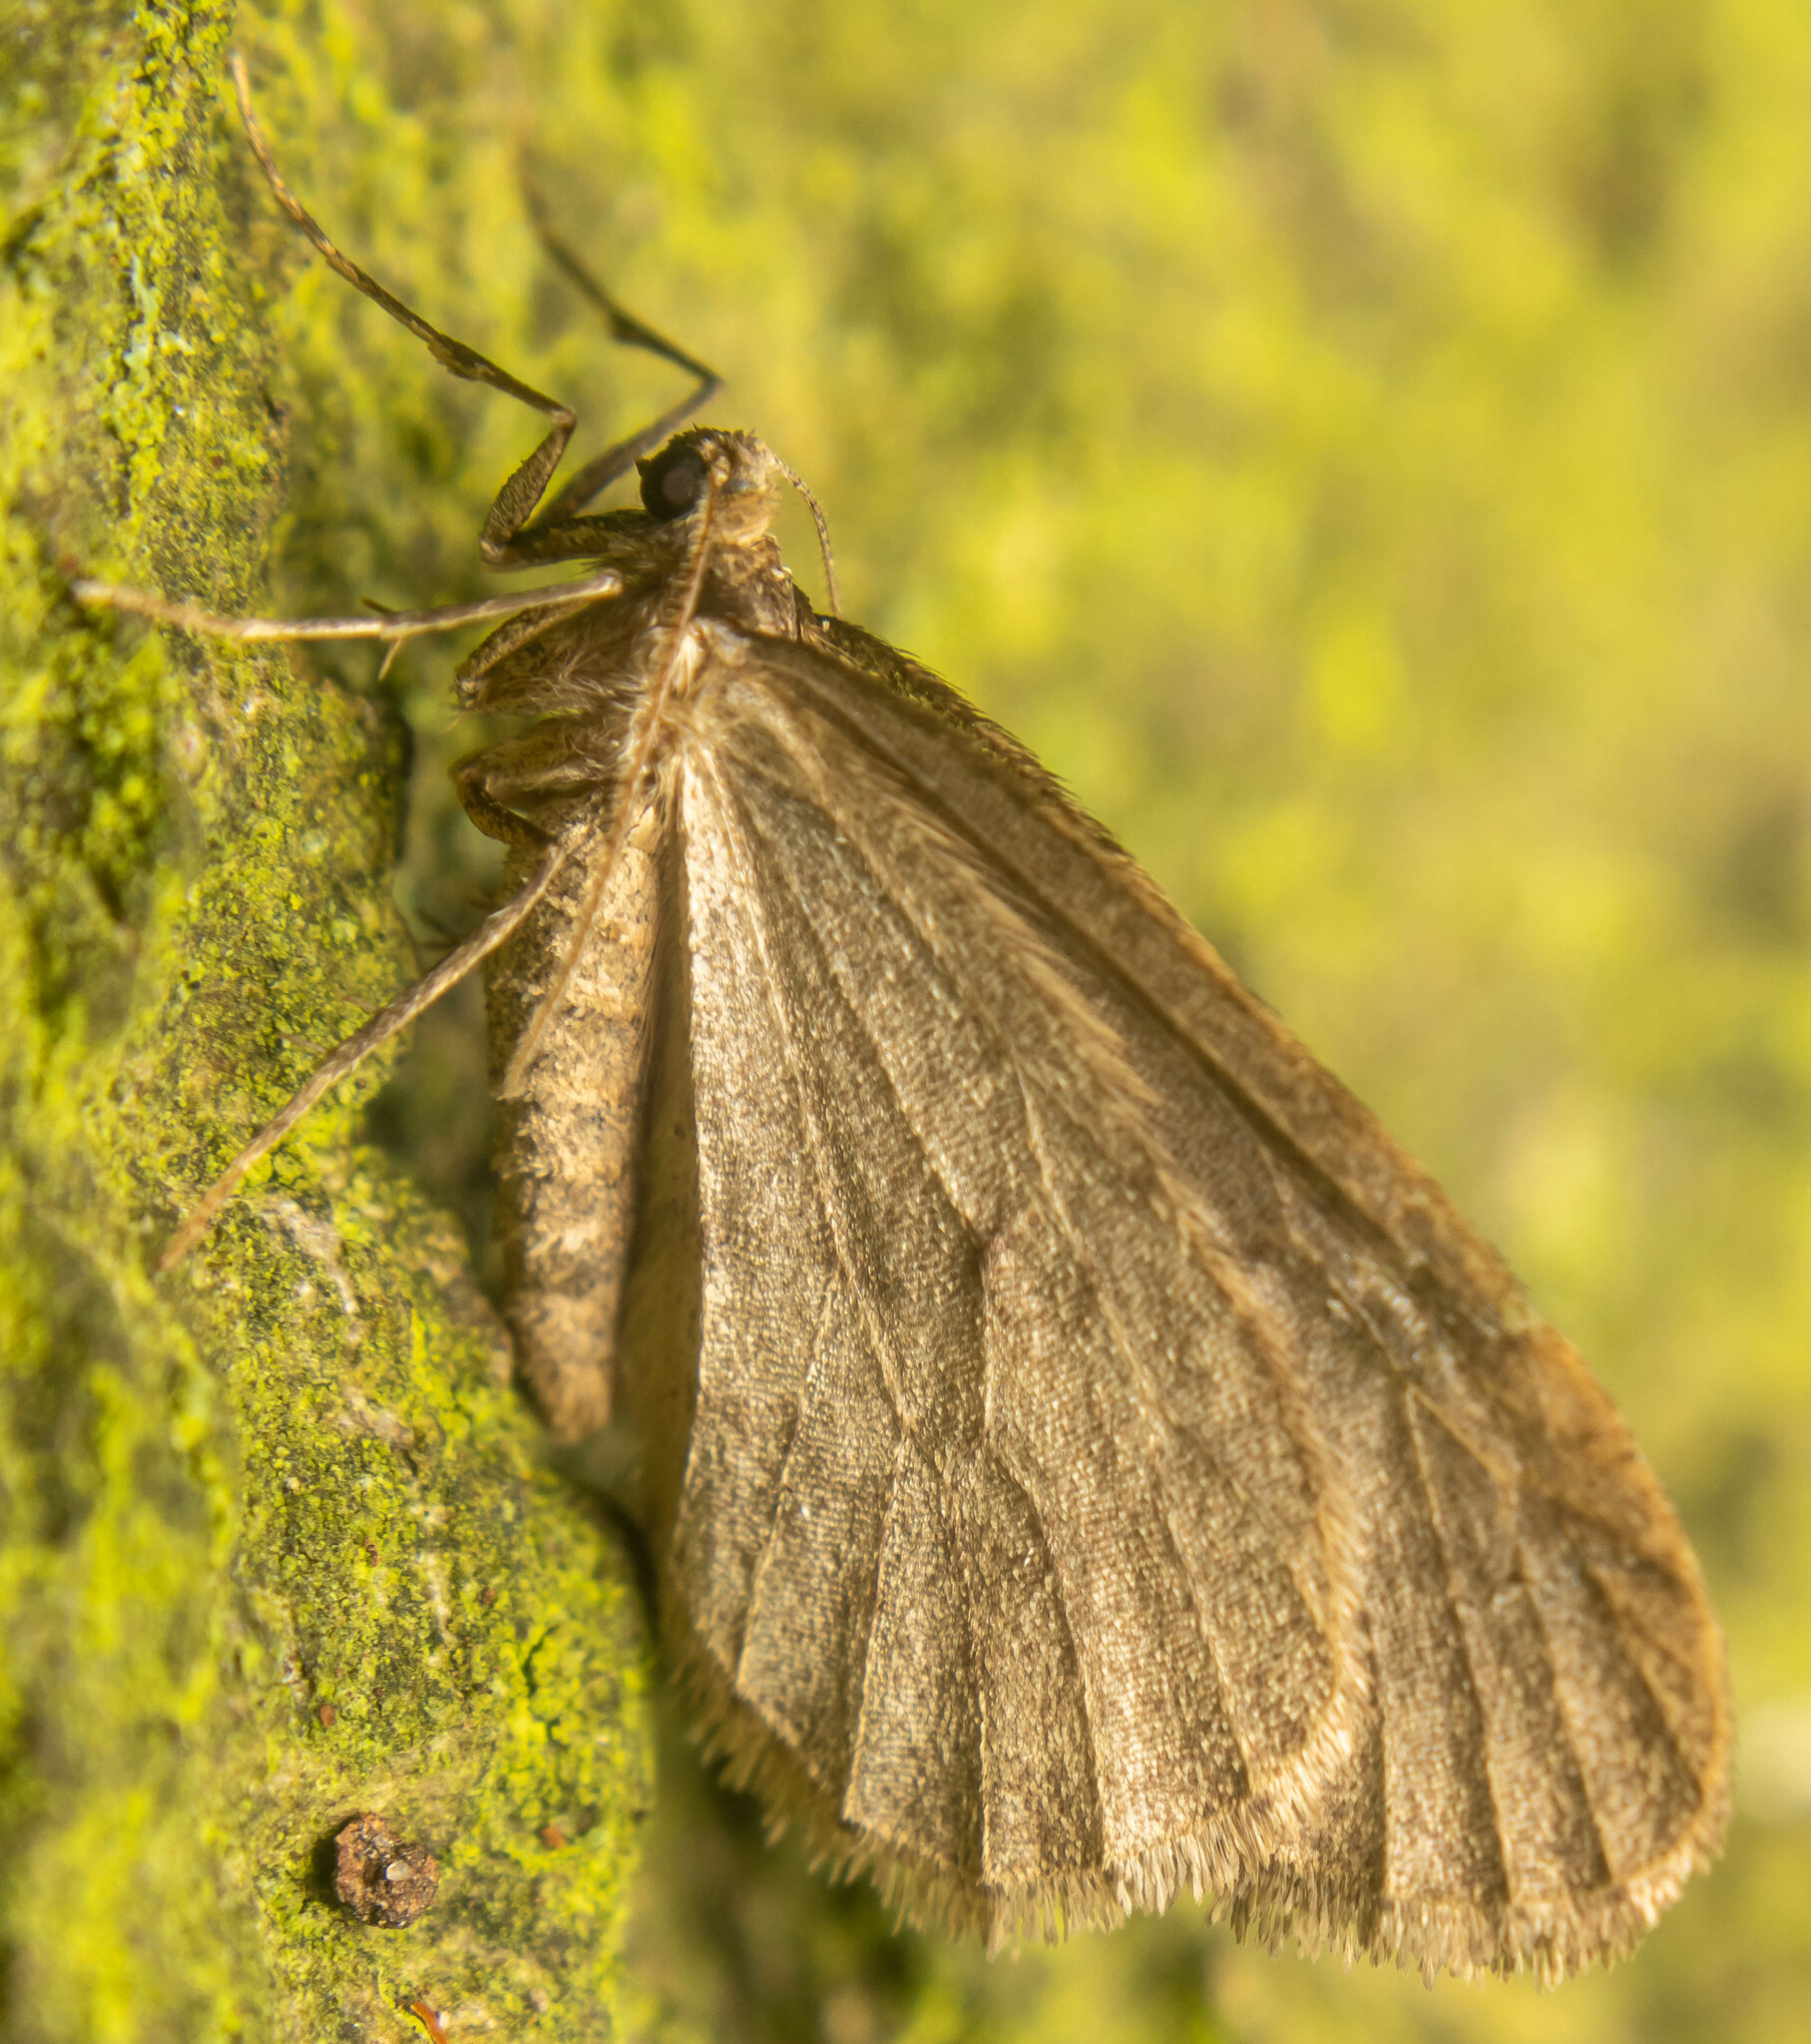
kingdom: Animalia
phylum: Arthropoda
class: Insecta
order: Lepidoptera
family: Geometridae
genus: Operophtera
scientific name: Operophtera brumata
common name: Winter moth
